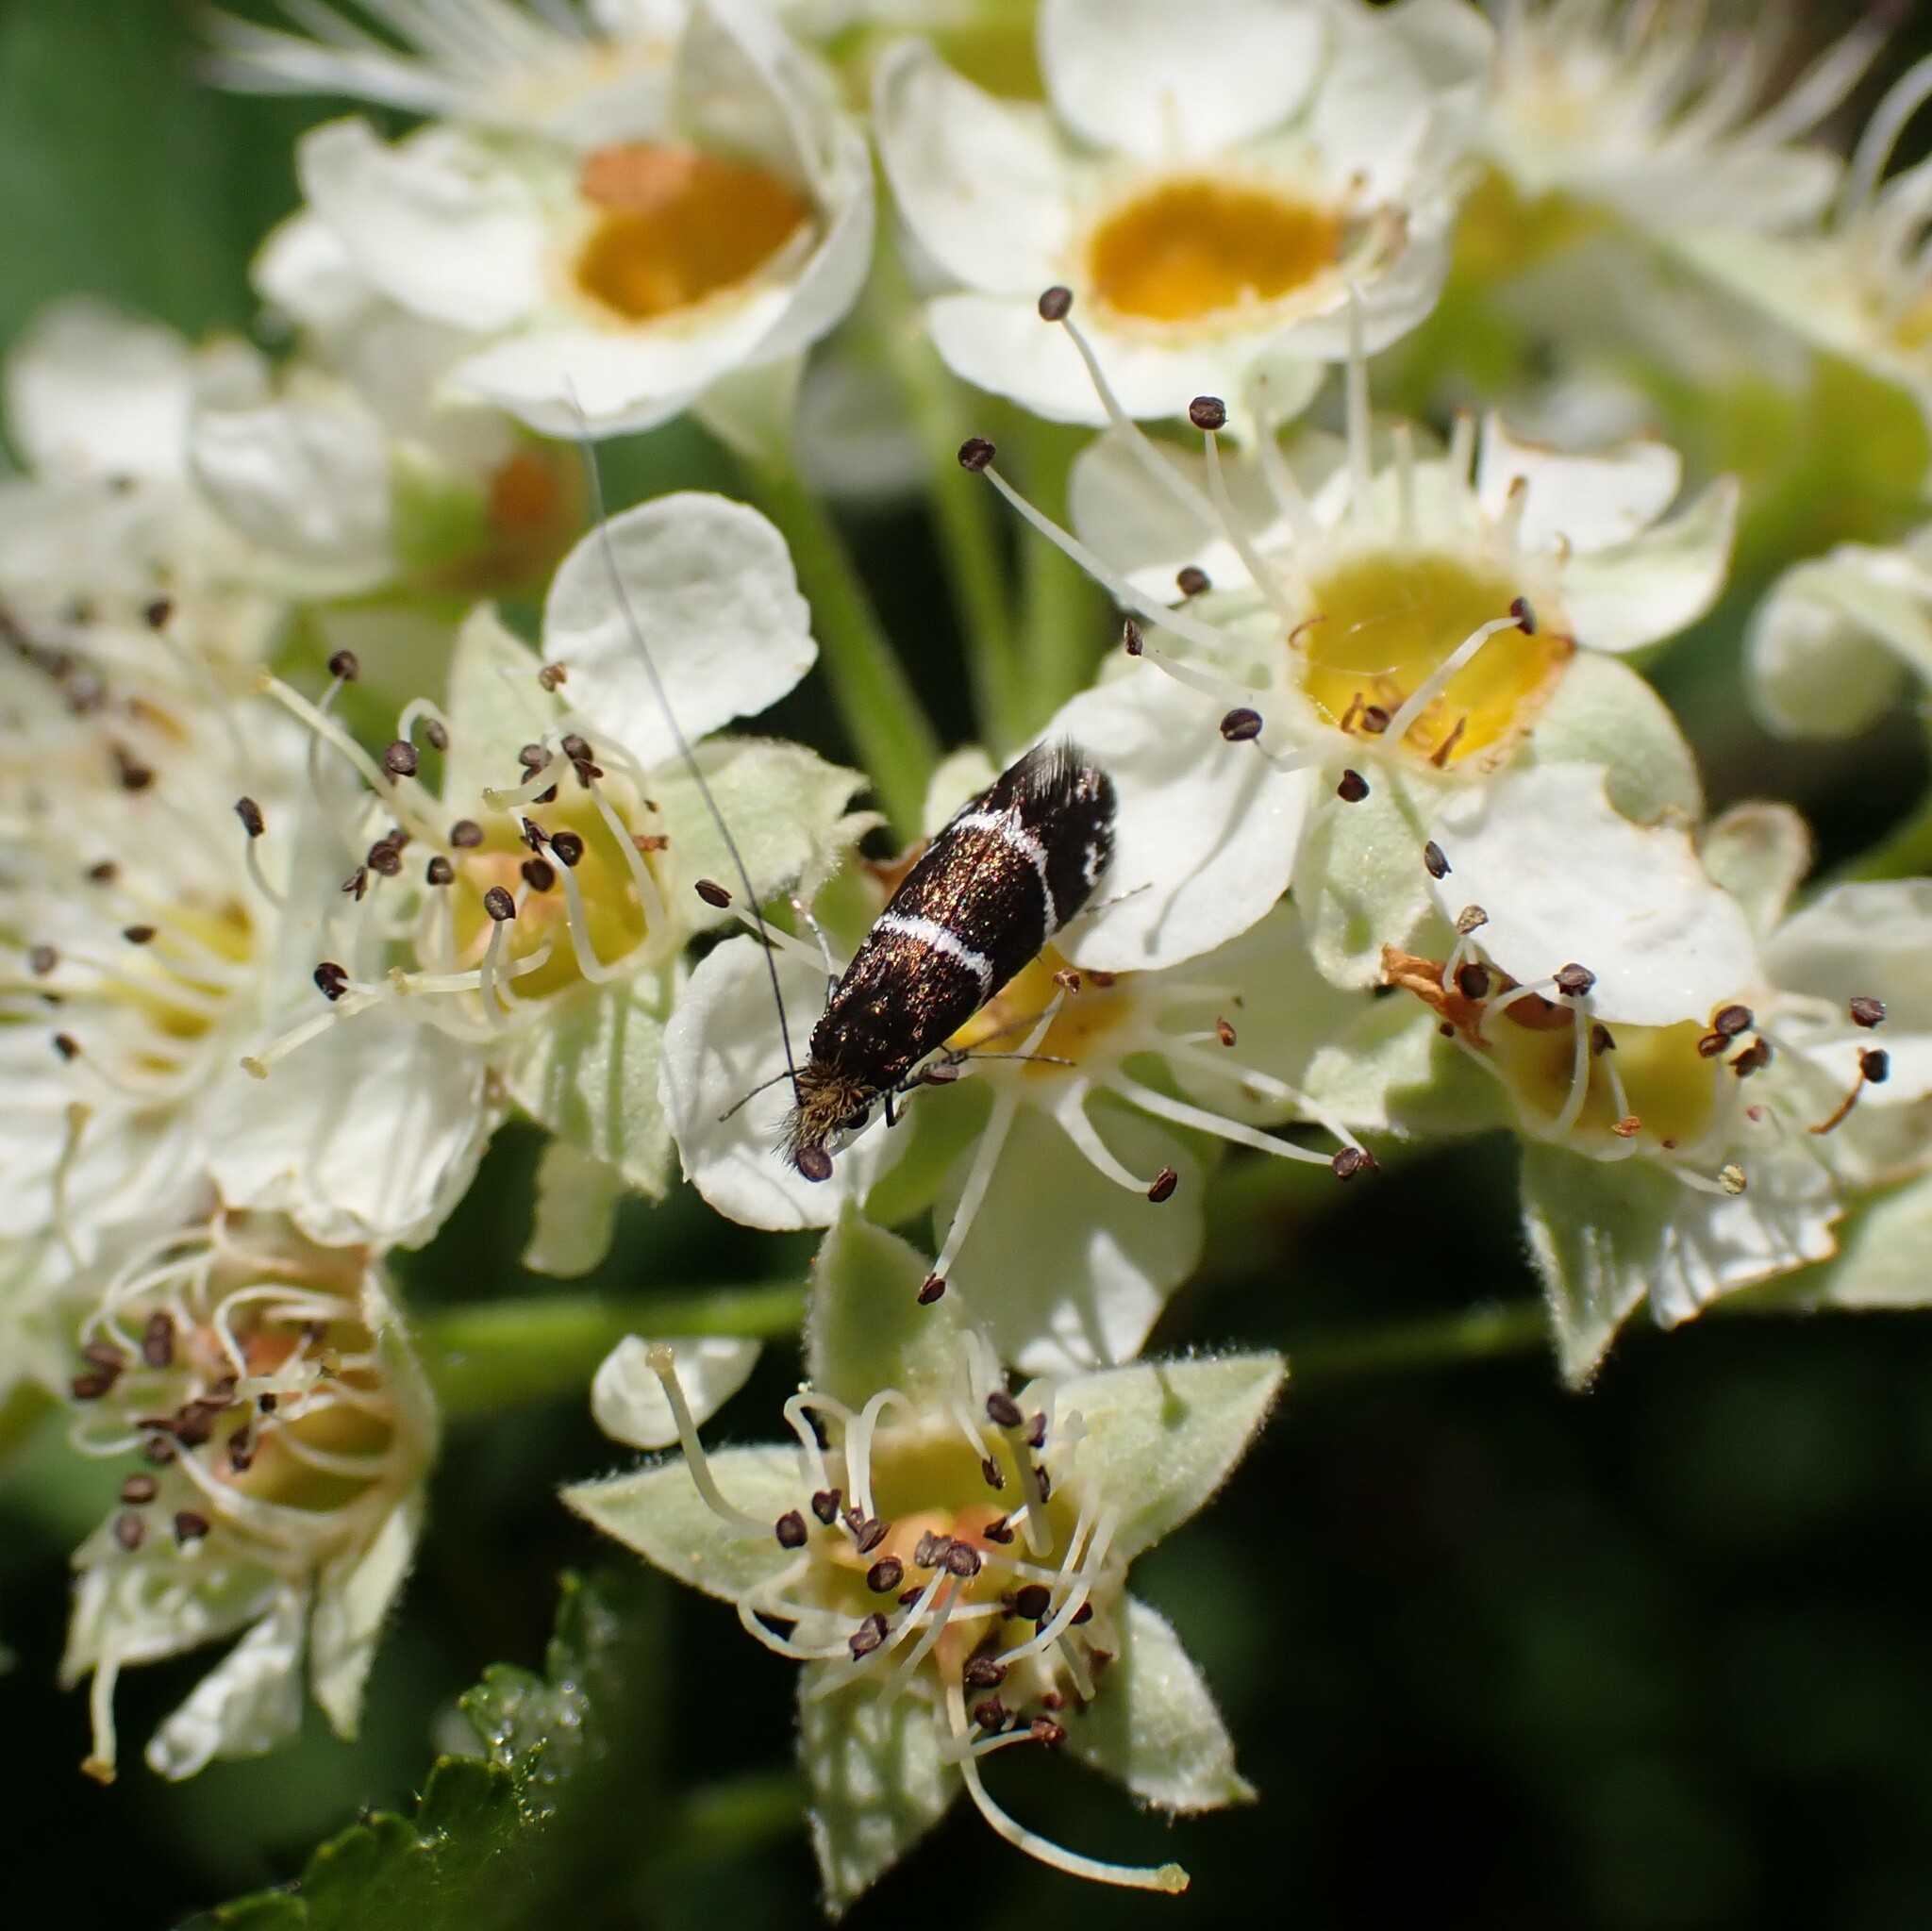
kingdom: Animalia
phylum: Arthropoda
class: Insecta
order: Lepidoptera
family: Adelidae
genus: Adela
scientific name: Adela septentrionella
